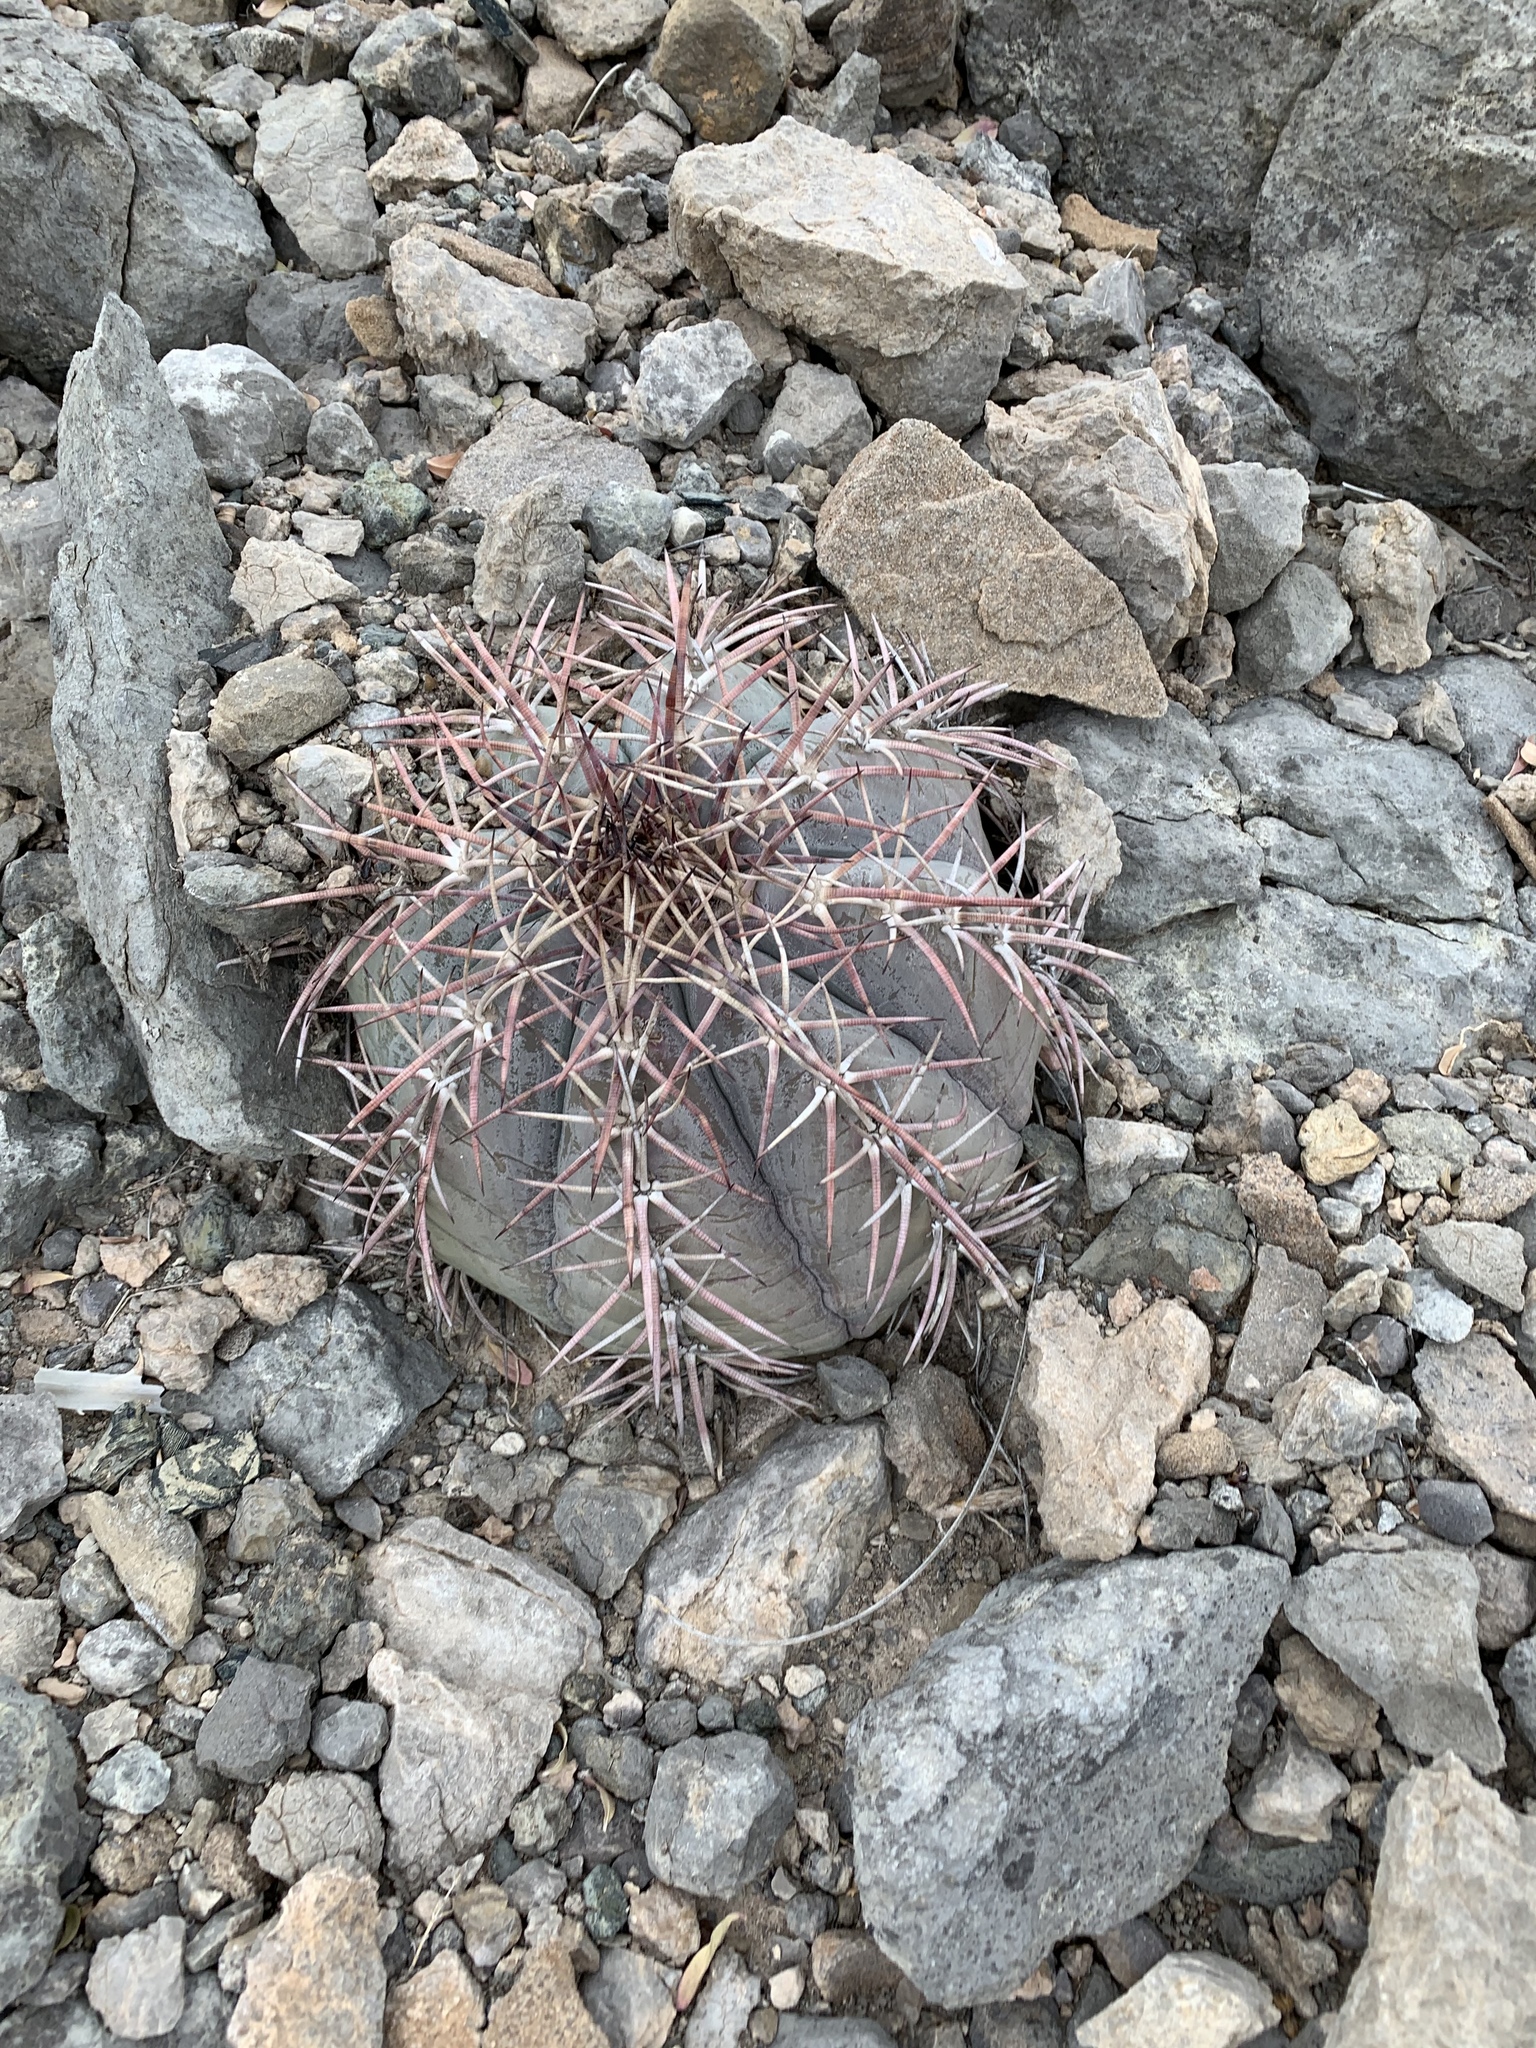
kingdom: Plantae
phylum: Tracheophyta
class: Magnoliopsida
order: Caryophyllales
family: Cactaceae
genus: Echinocactus
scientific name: Echinocactus horizonthalonius
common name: Devilshead
